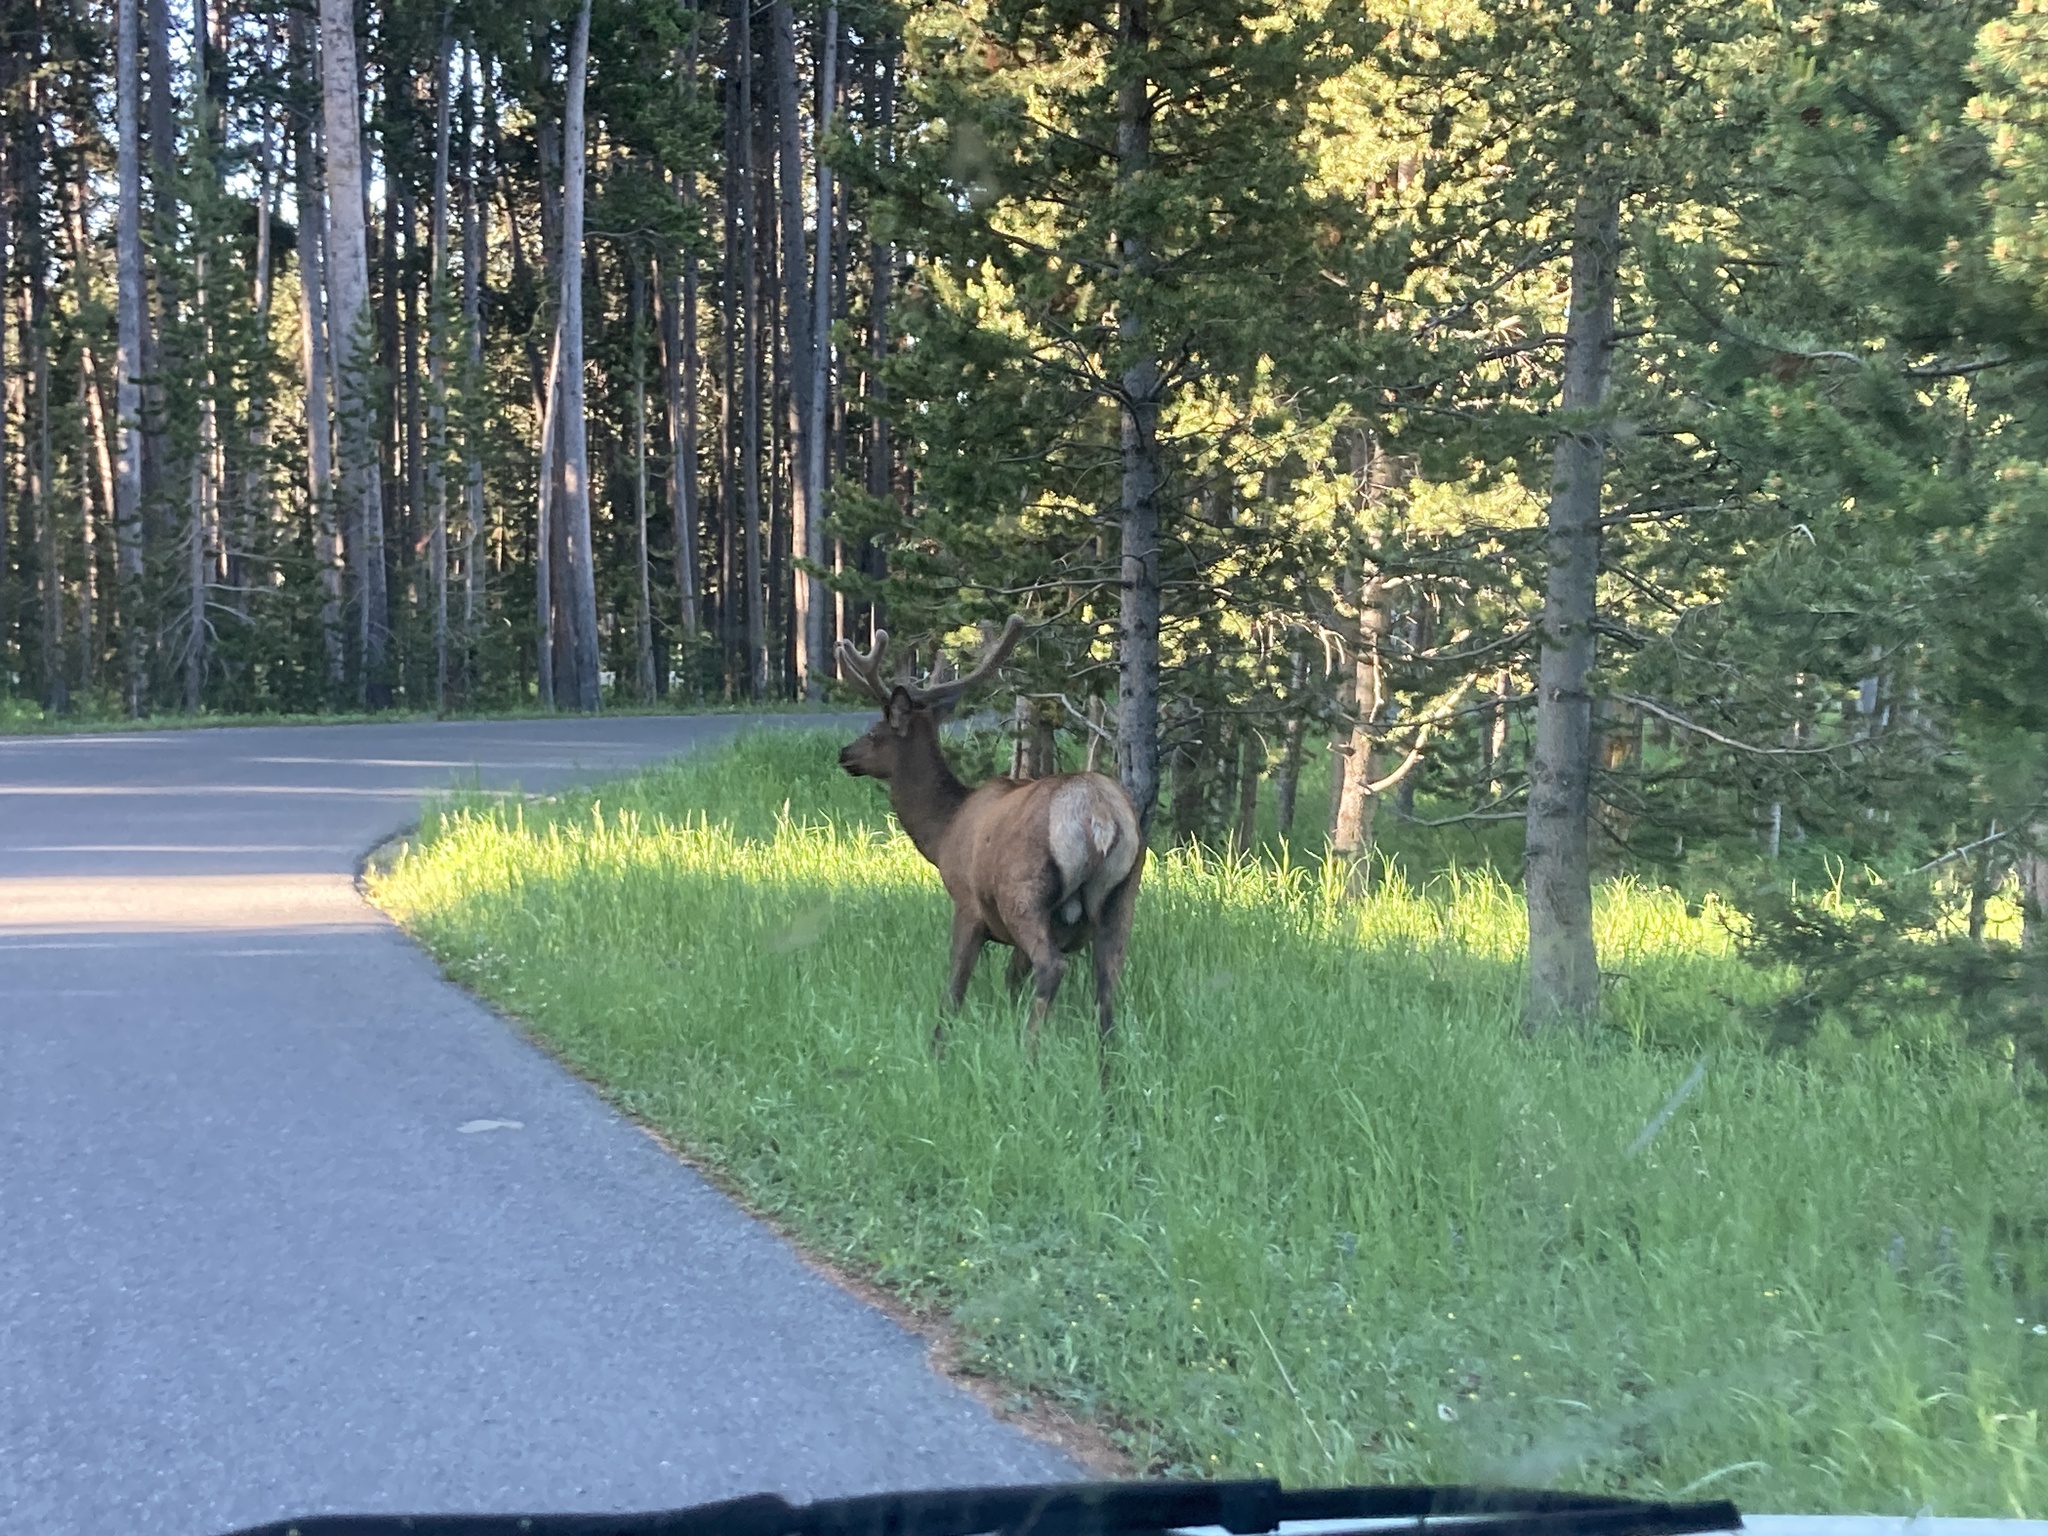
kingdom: Animalia
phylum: Chordata
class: Mammalia
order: Artiodactyla
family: Cervidae
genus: Cervus
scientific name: Cervus elaphus
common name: Red deer
